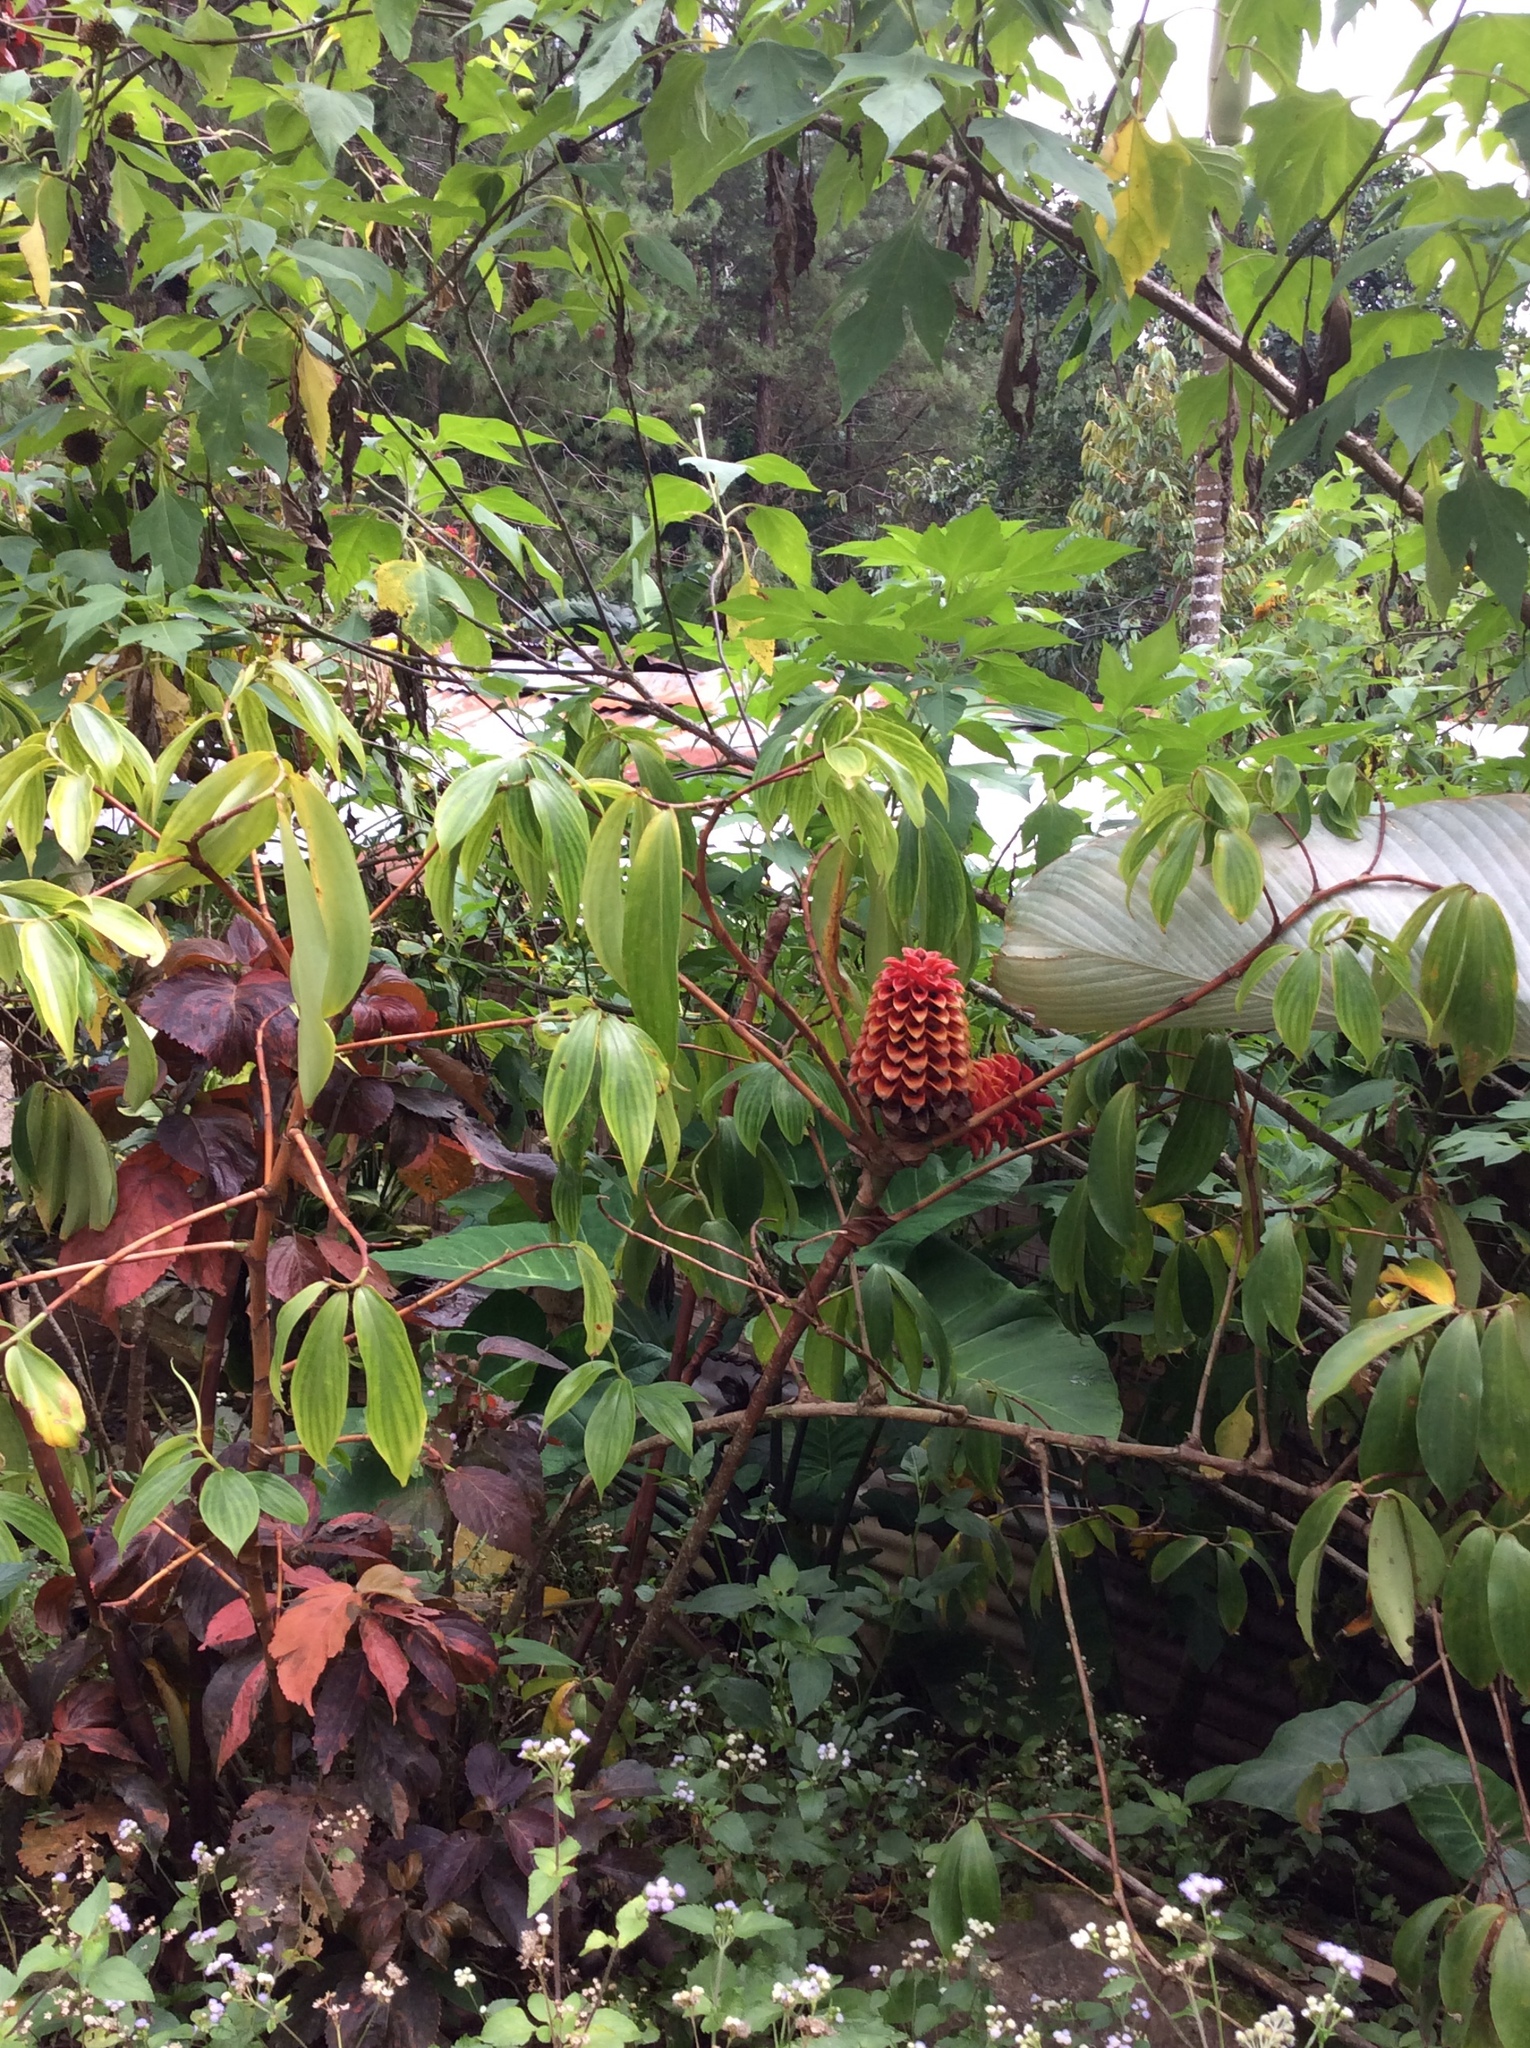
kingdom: Plantae
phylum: Tracheophyta
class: Liliopsida
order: Zingiberales
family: Costaceae
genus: Hellenia
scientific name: Hellenia speciosa
